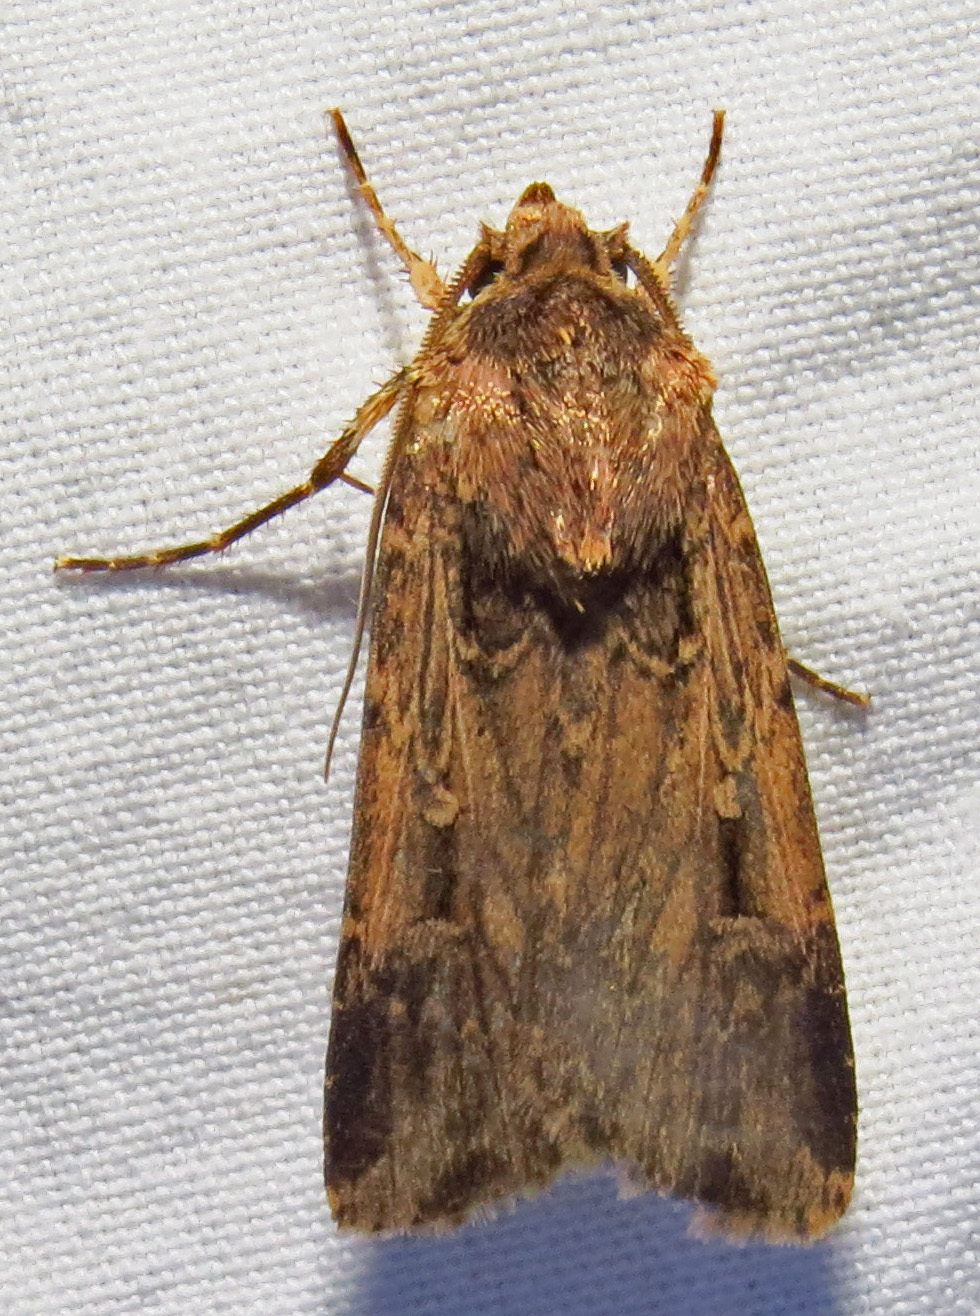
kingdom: Animalia
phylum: Arthropoda
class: Insecta
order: Lepidoptera
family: Noctuidae
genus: Feltia
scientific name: Feltia subterranea
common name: Granulate cutworm
